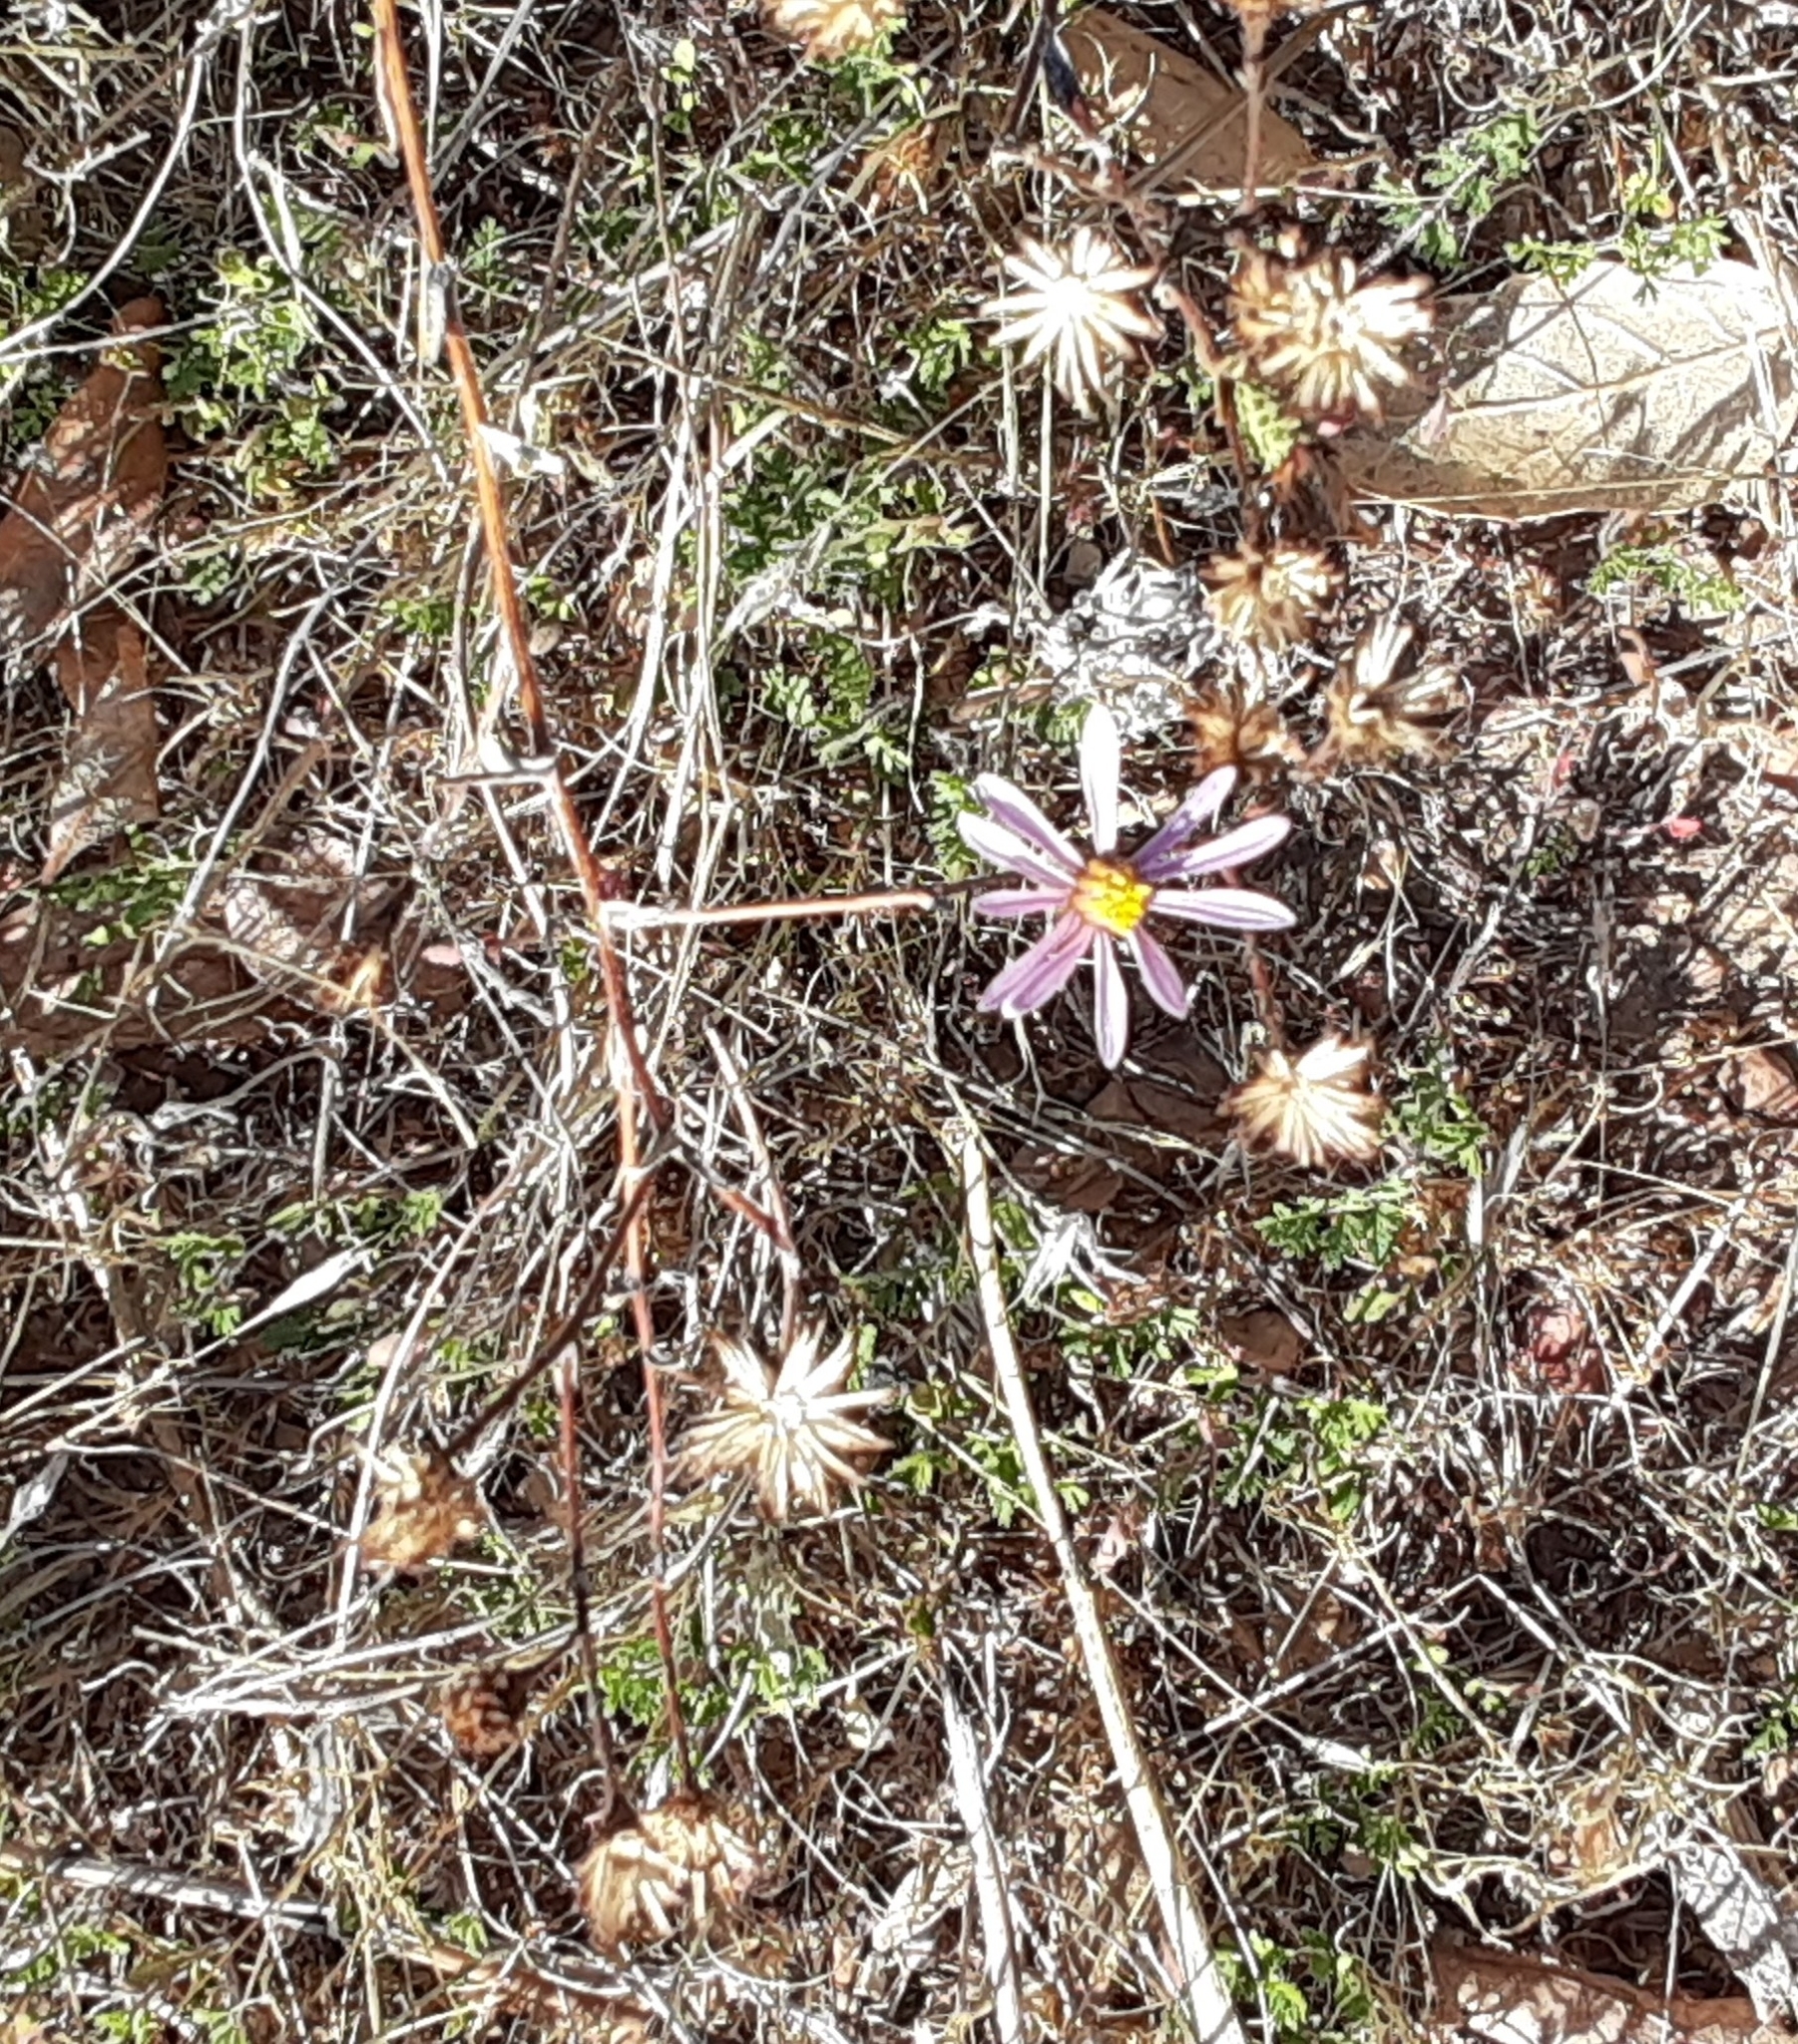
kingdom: Plantae
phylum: Tracheophyta
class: Magnoliopsida
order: Asterales
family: Asteraceae
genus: Corethrogyne
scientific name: Corethrogyne filaginifolia
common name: Sand-aster
